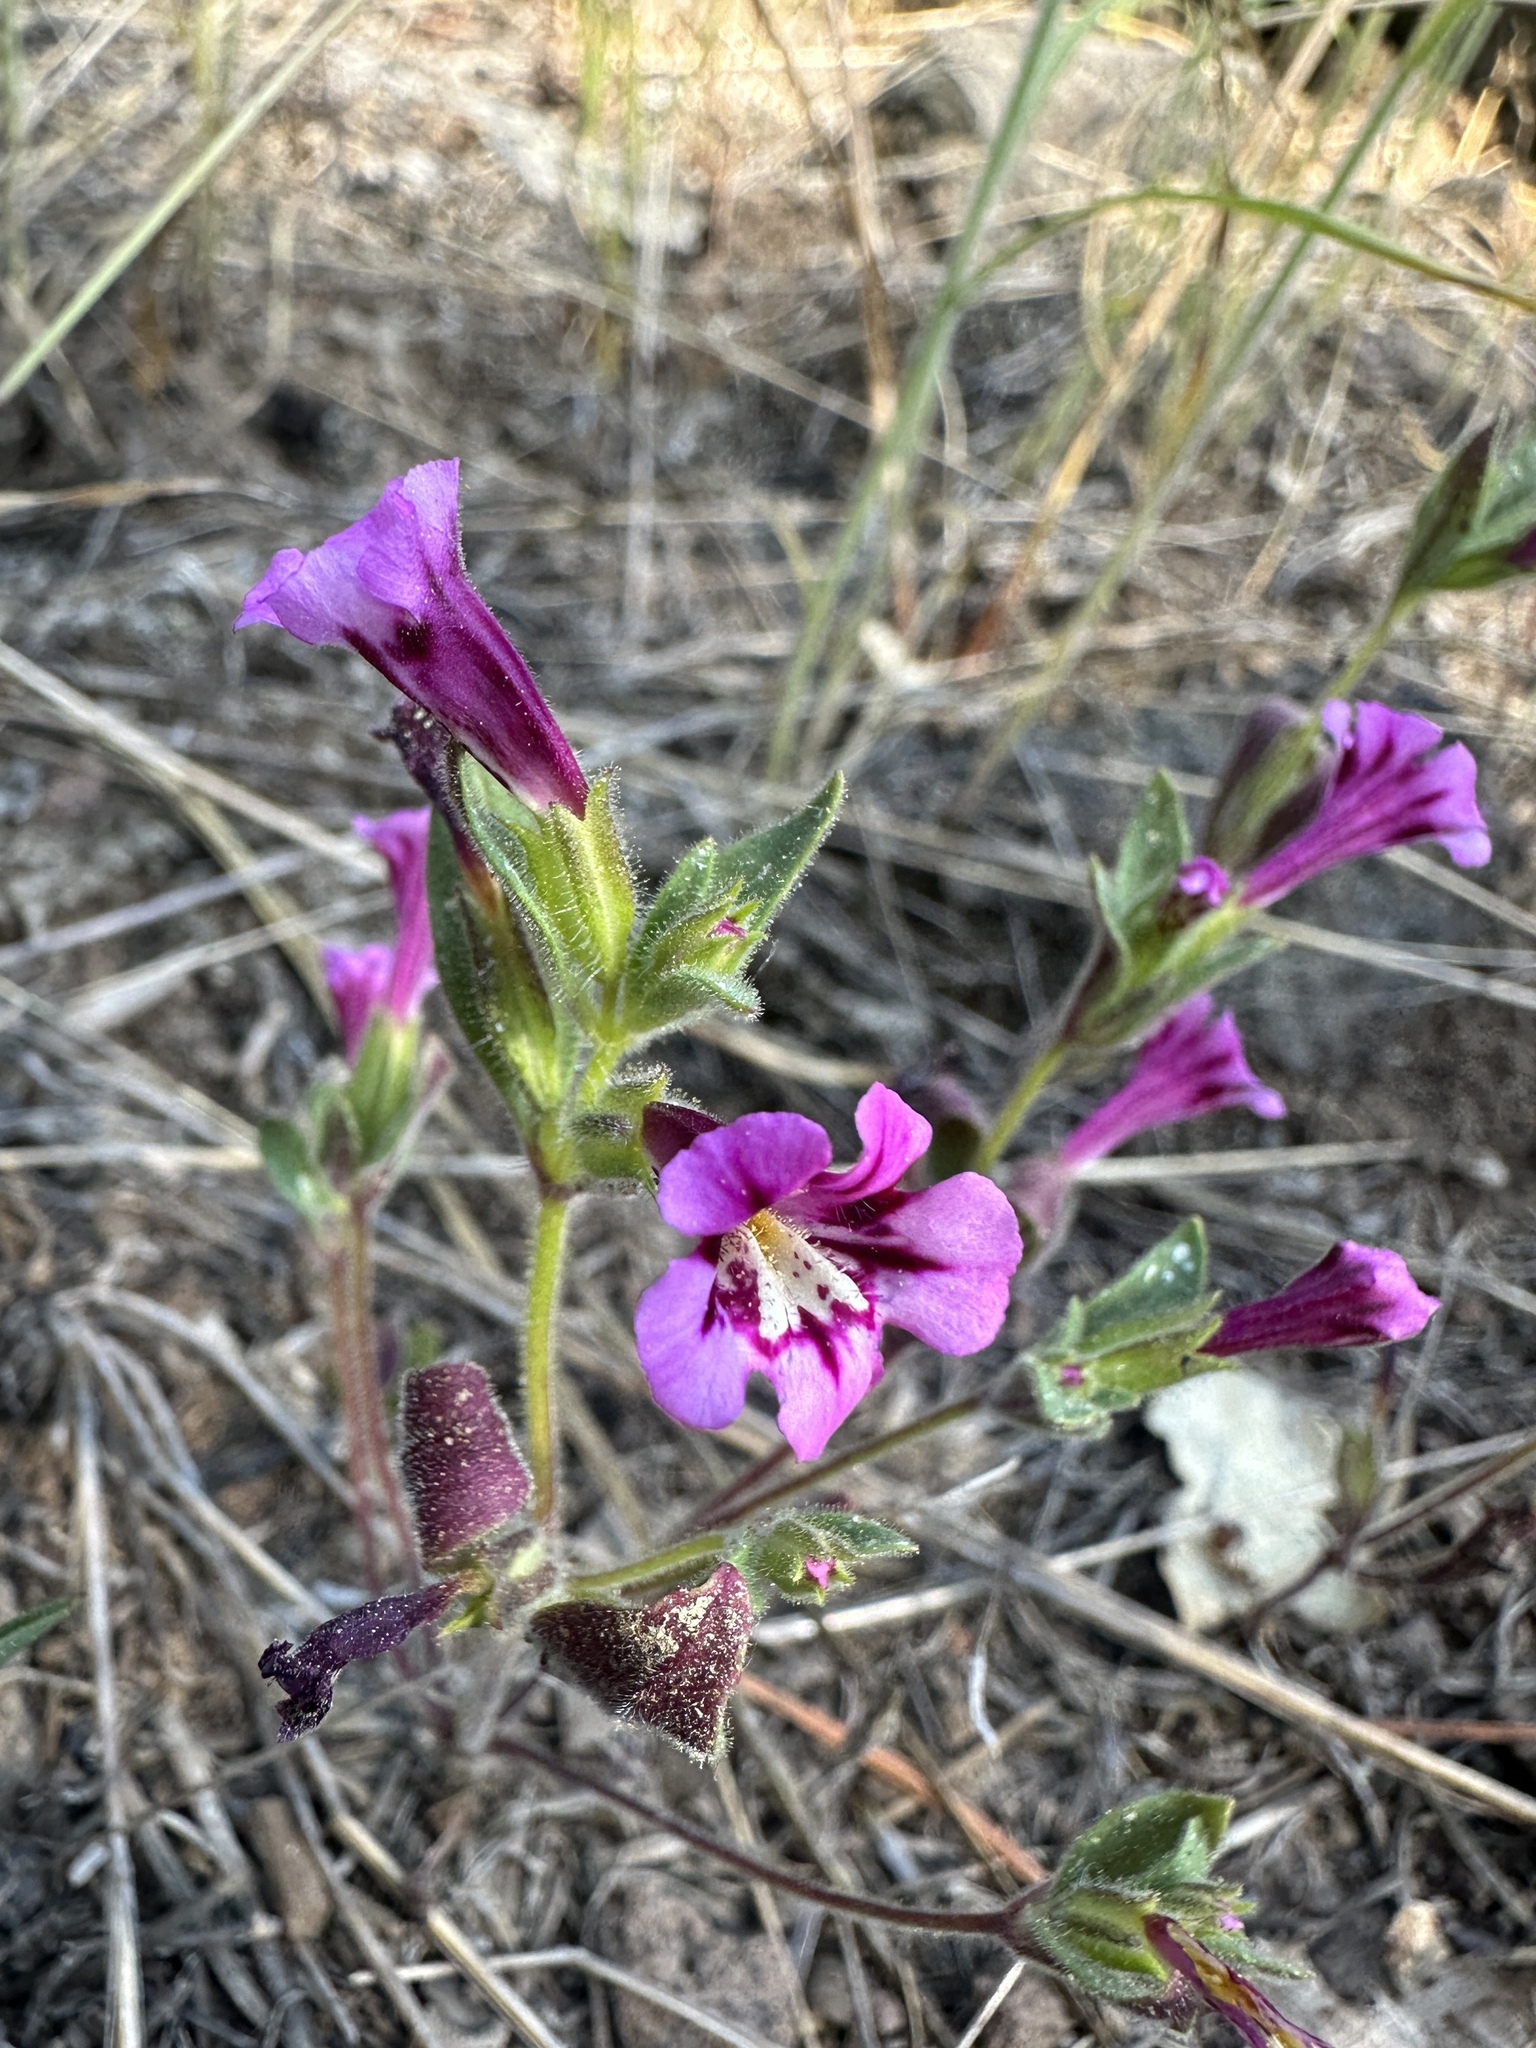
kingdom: Plantae
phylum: Tracheophyta
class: Magnoliopsida
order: Lamiales
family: Phrymaceae
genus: Diplacus
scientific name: Diplacus layneae
